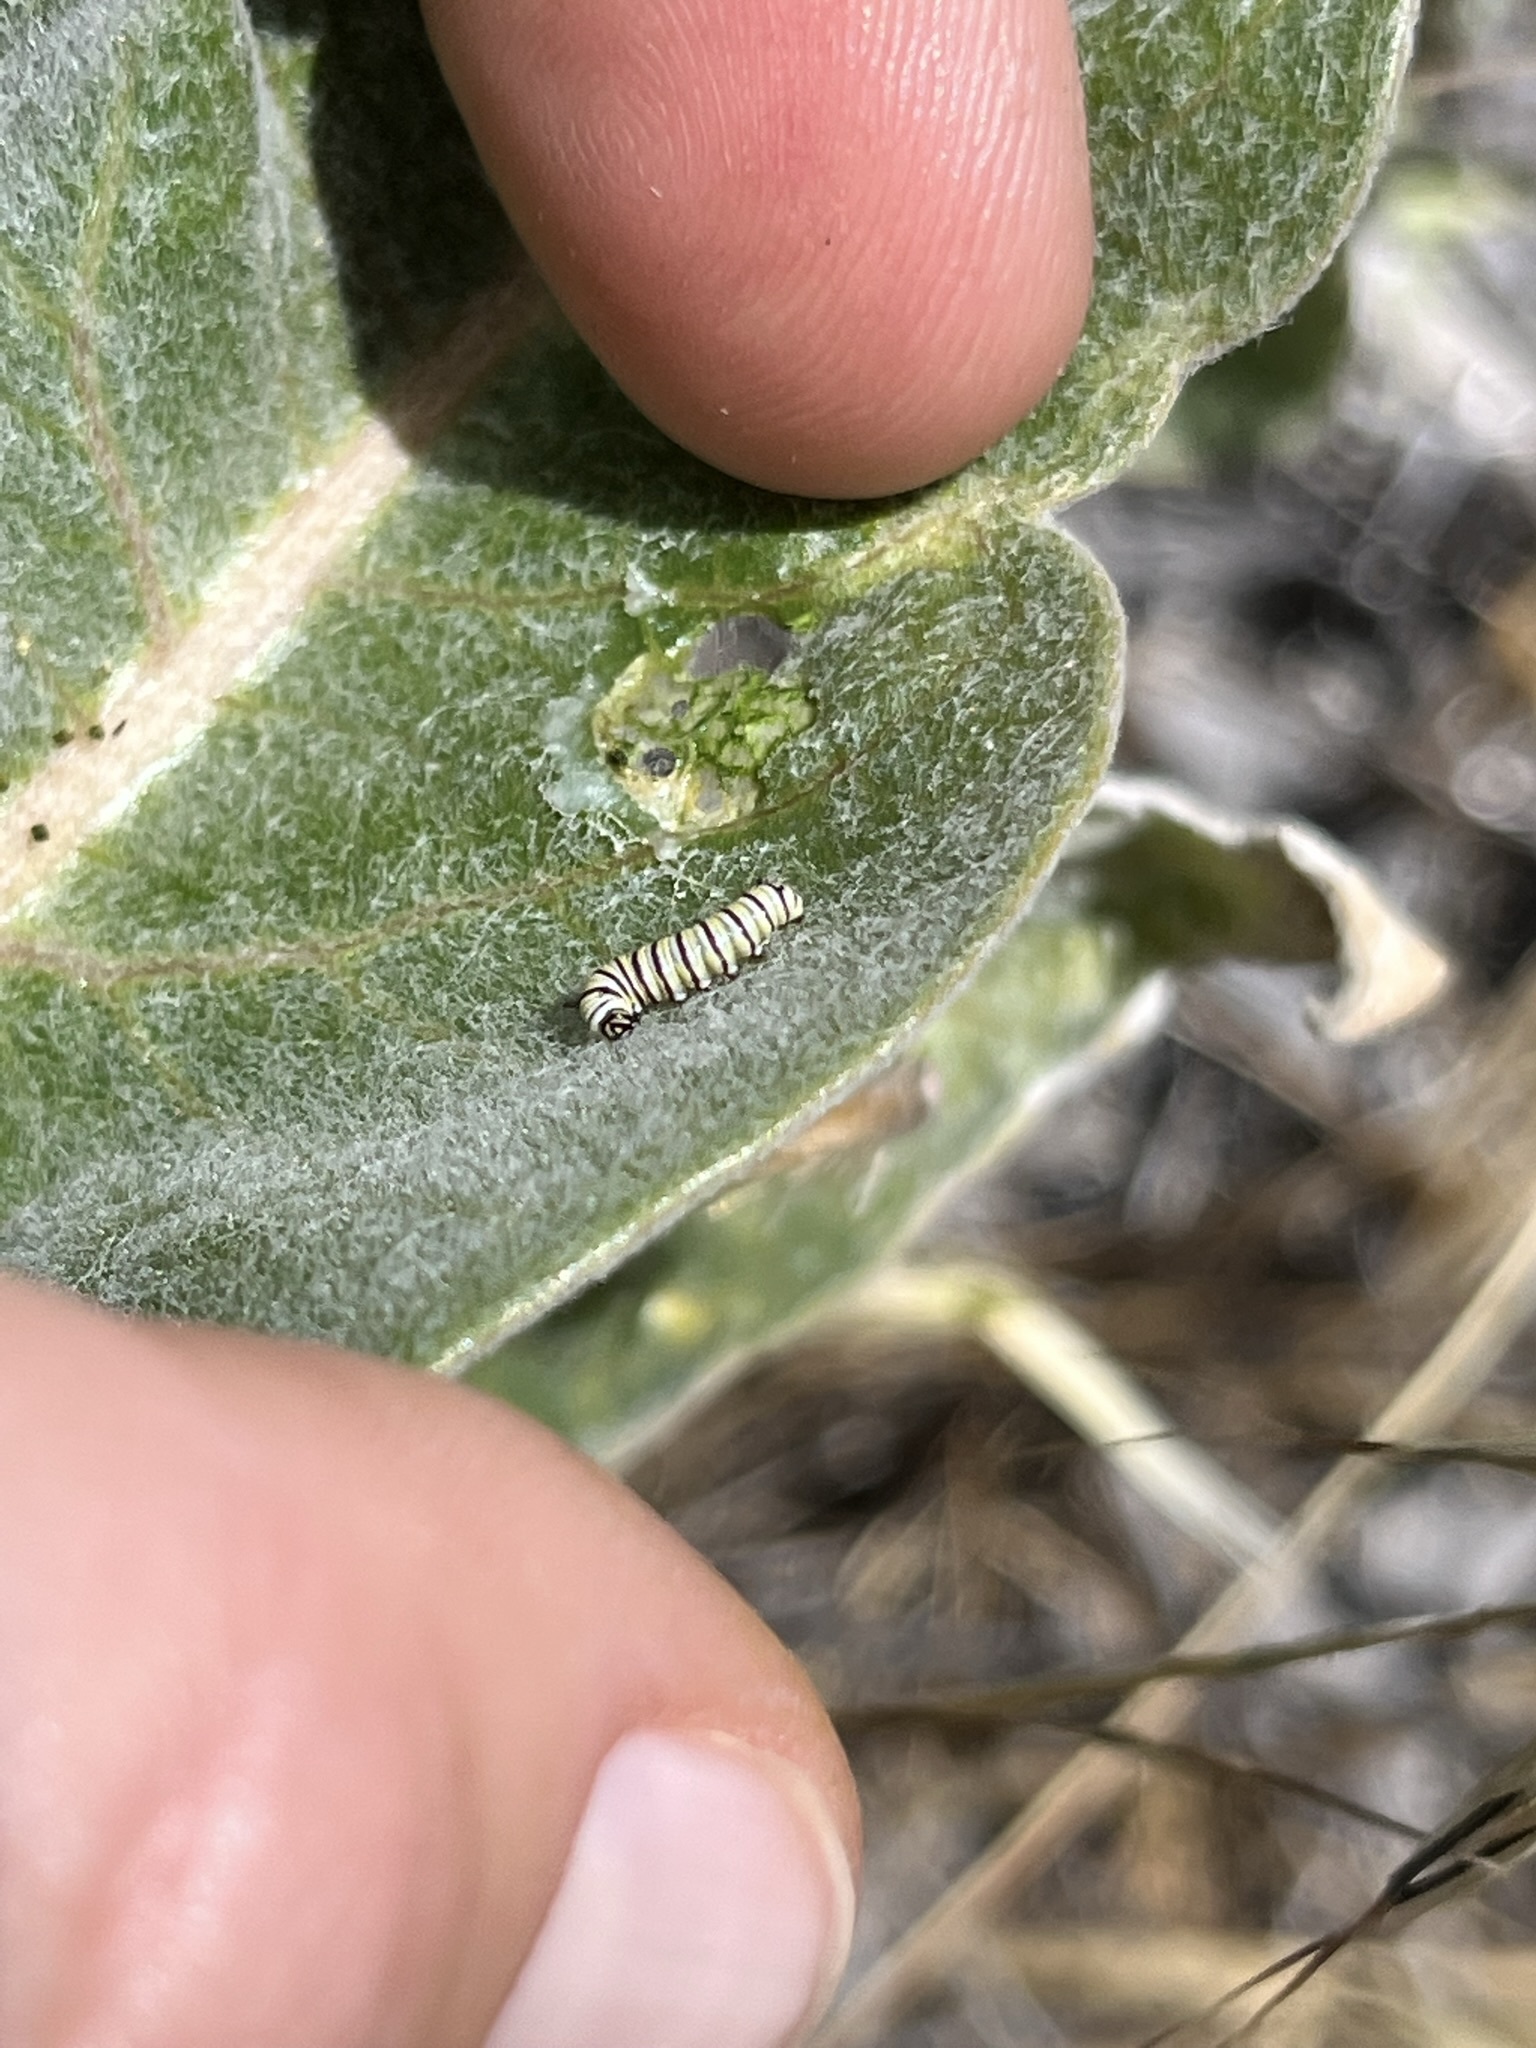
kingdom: Animalia
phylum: Arthropoda
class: Insecta
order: Lepidoptera
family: Nymphalidae
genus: Danaus
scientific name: Danaus plexippus
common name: Monarch
